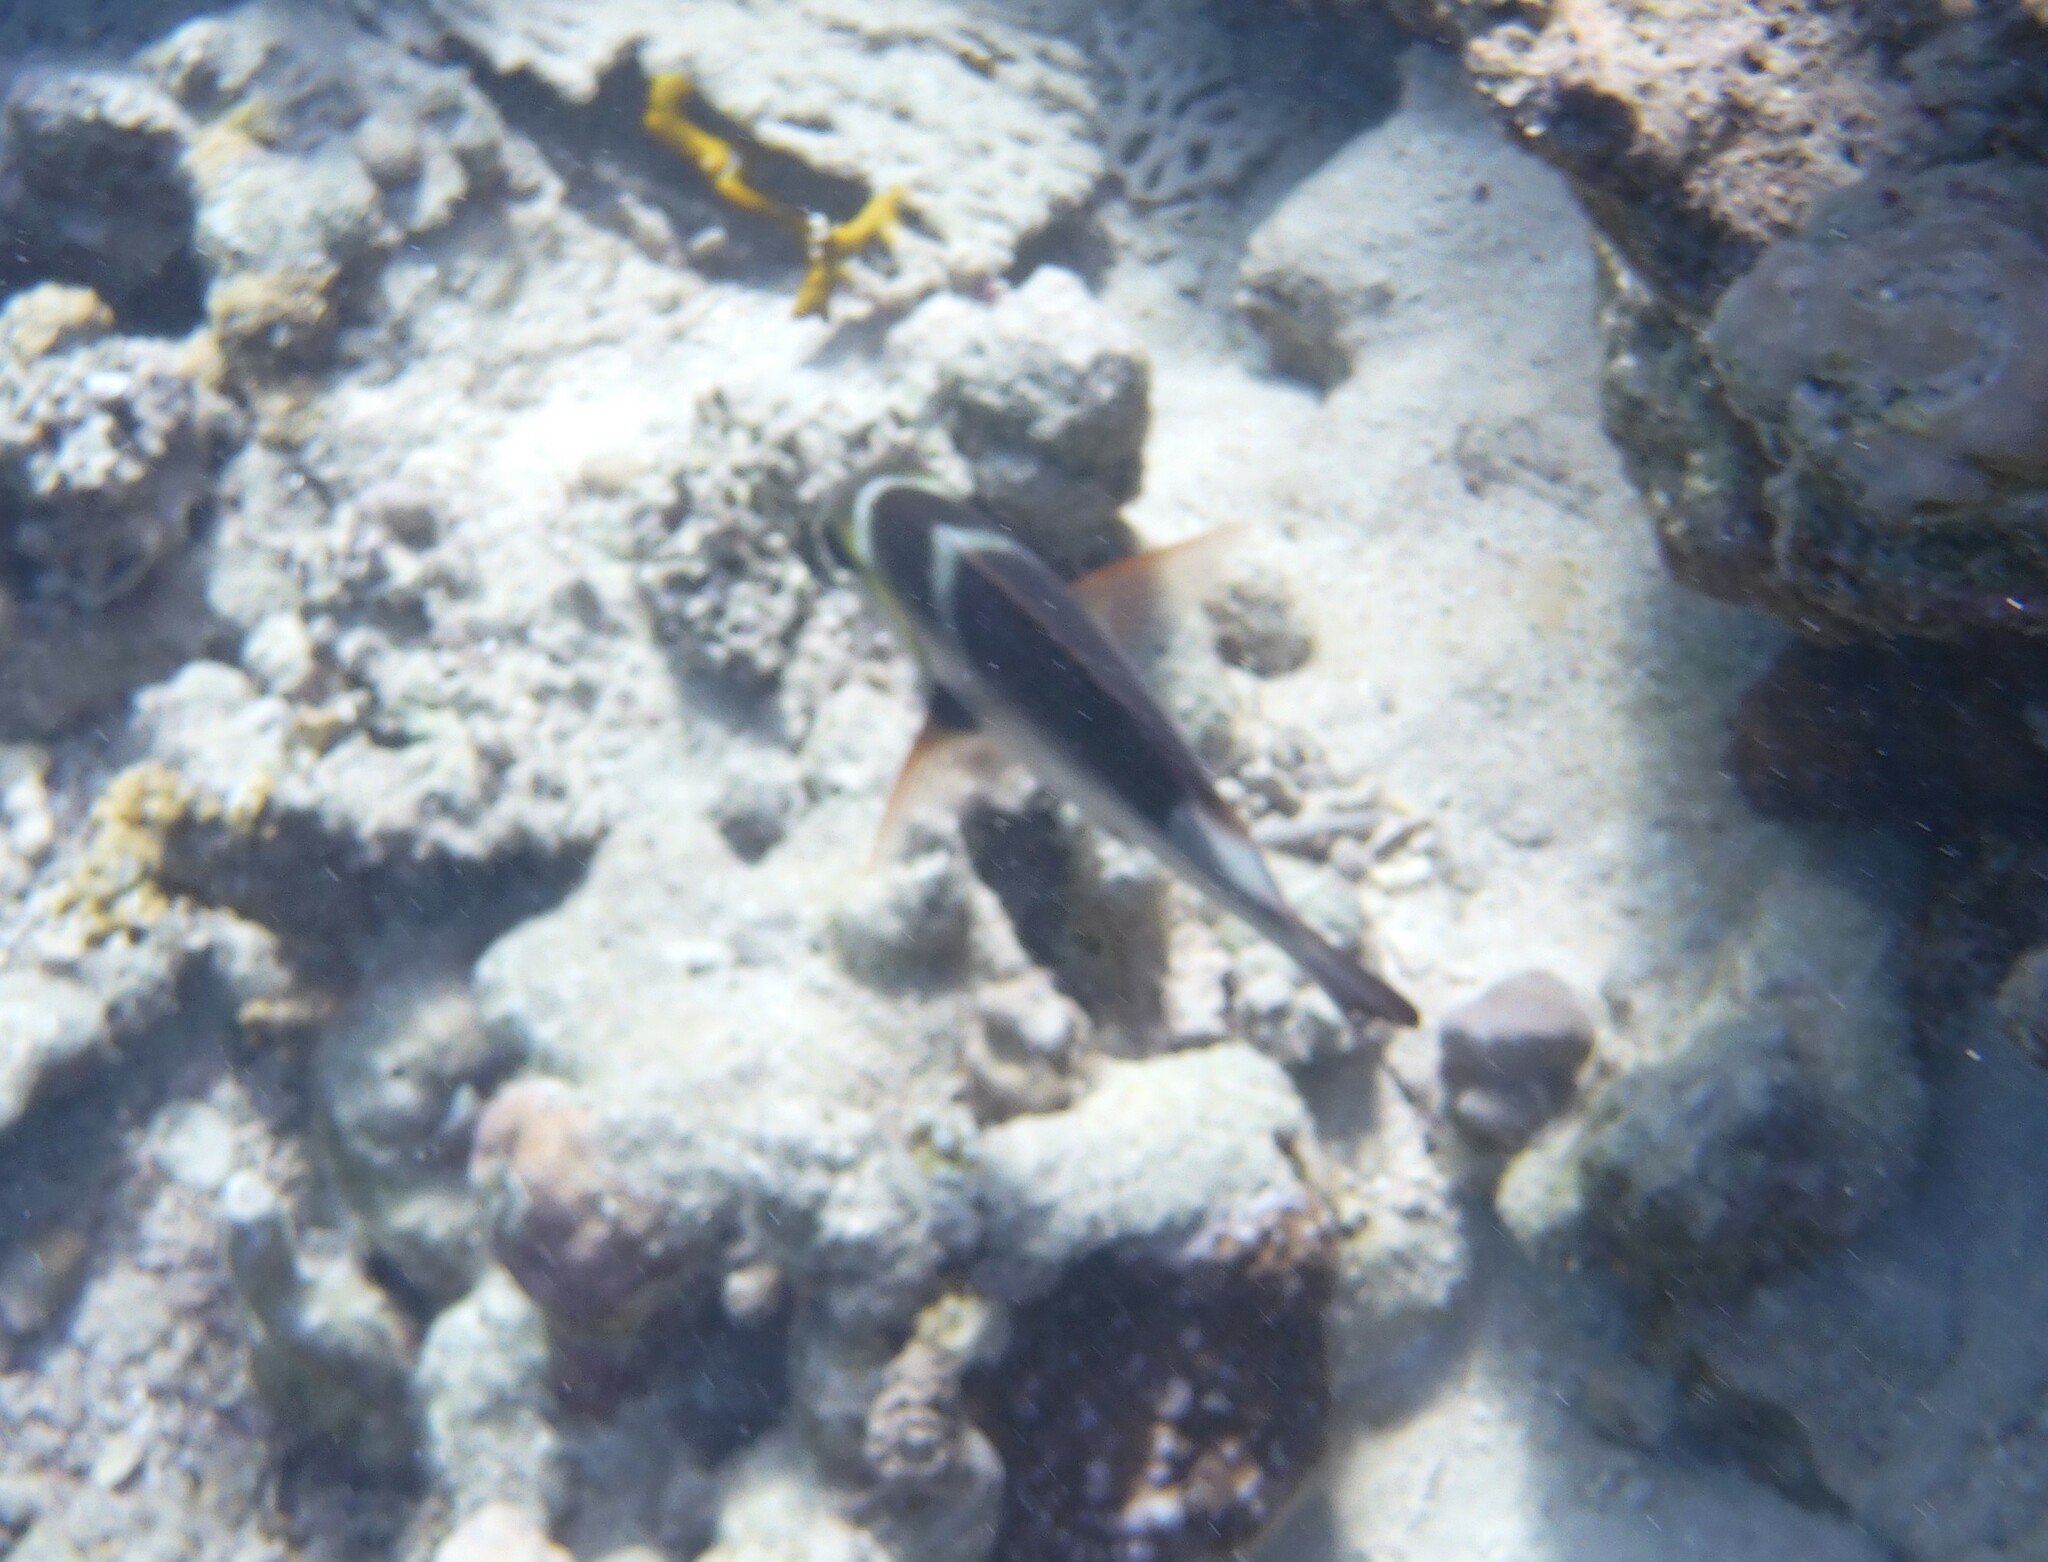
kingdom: Animalia
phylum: Chordata
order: Perciformes
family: Lethrinidae
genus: Monotaxis
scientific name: Monotaxis grandoculis
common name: Bigeye emperor
